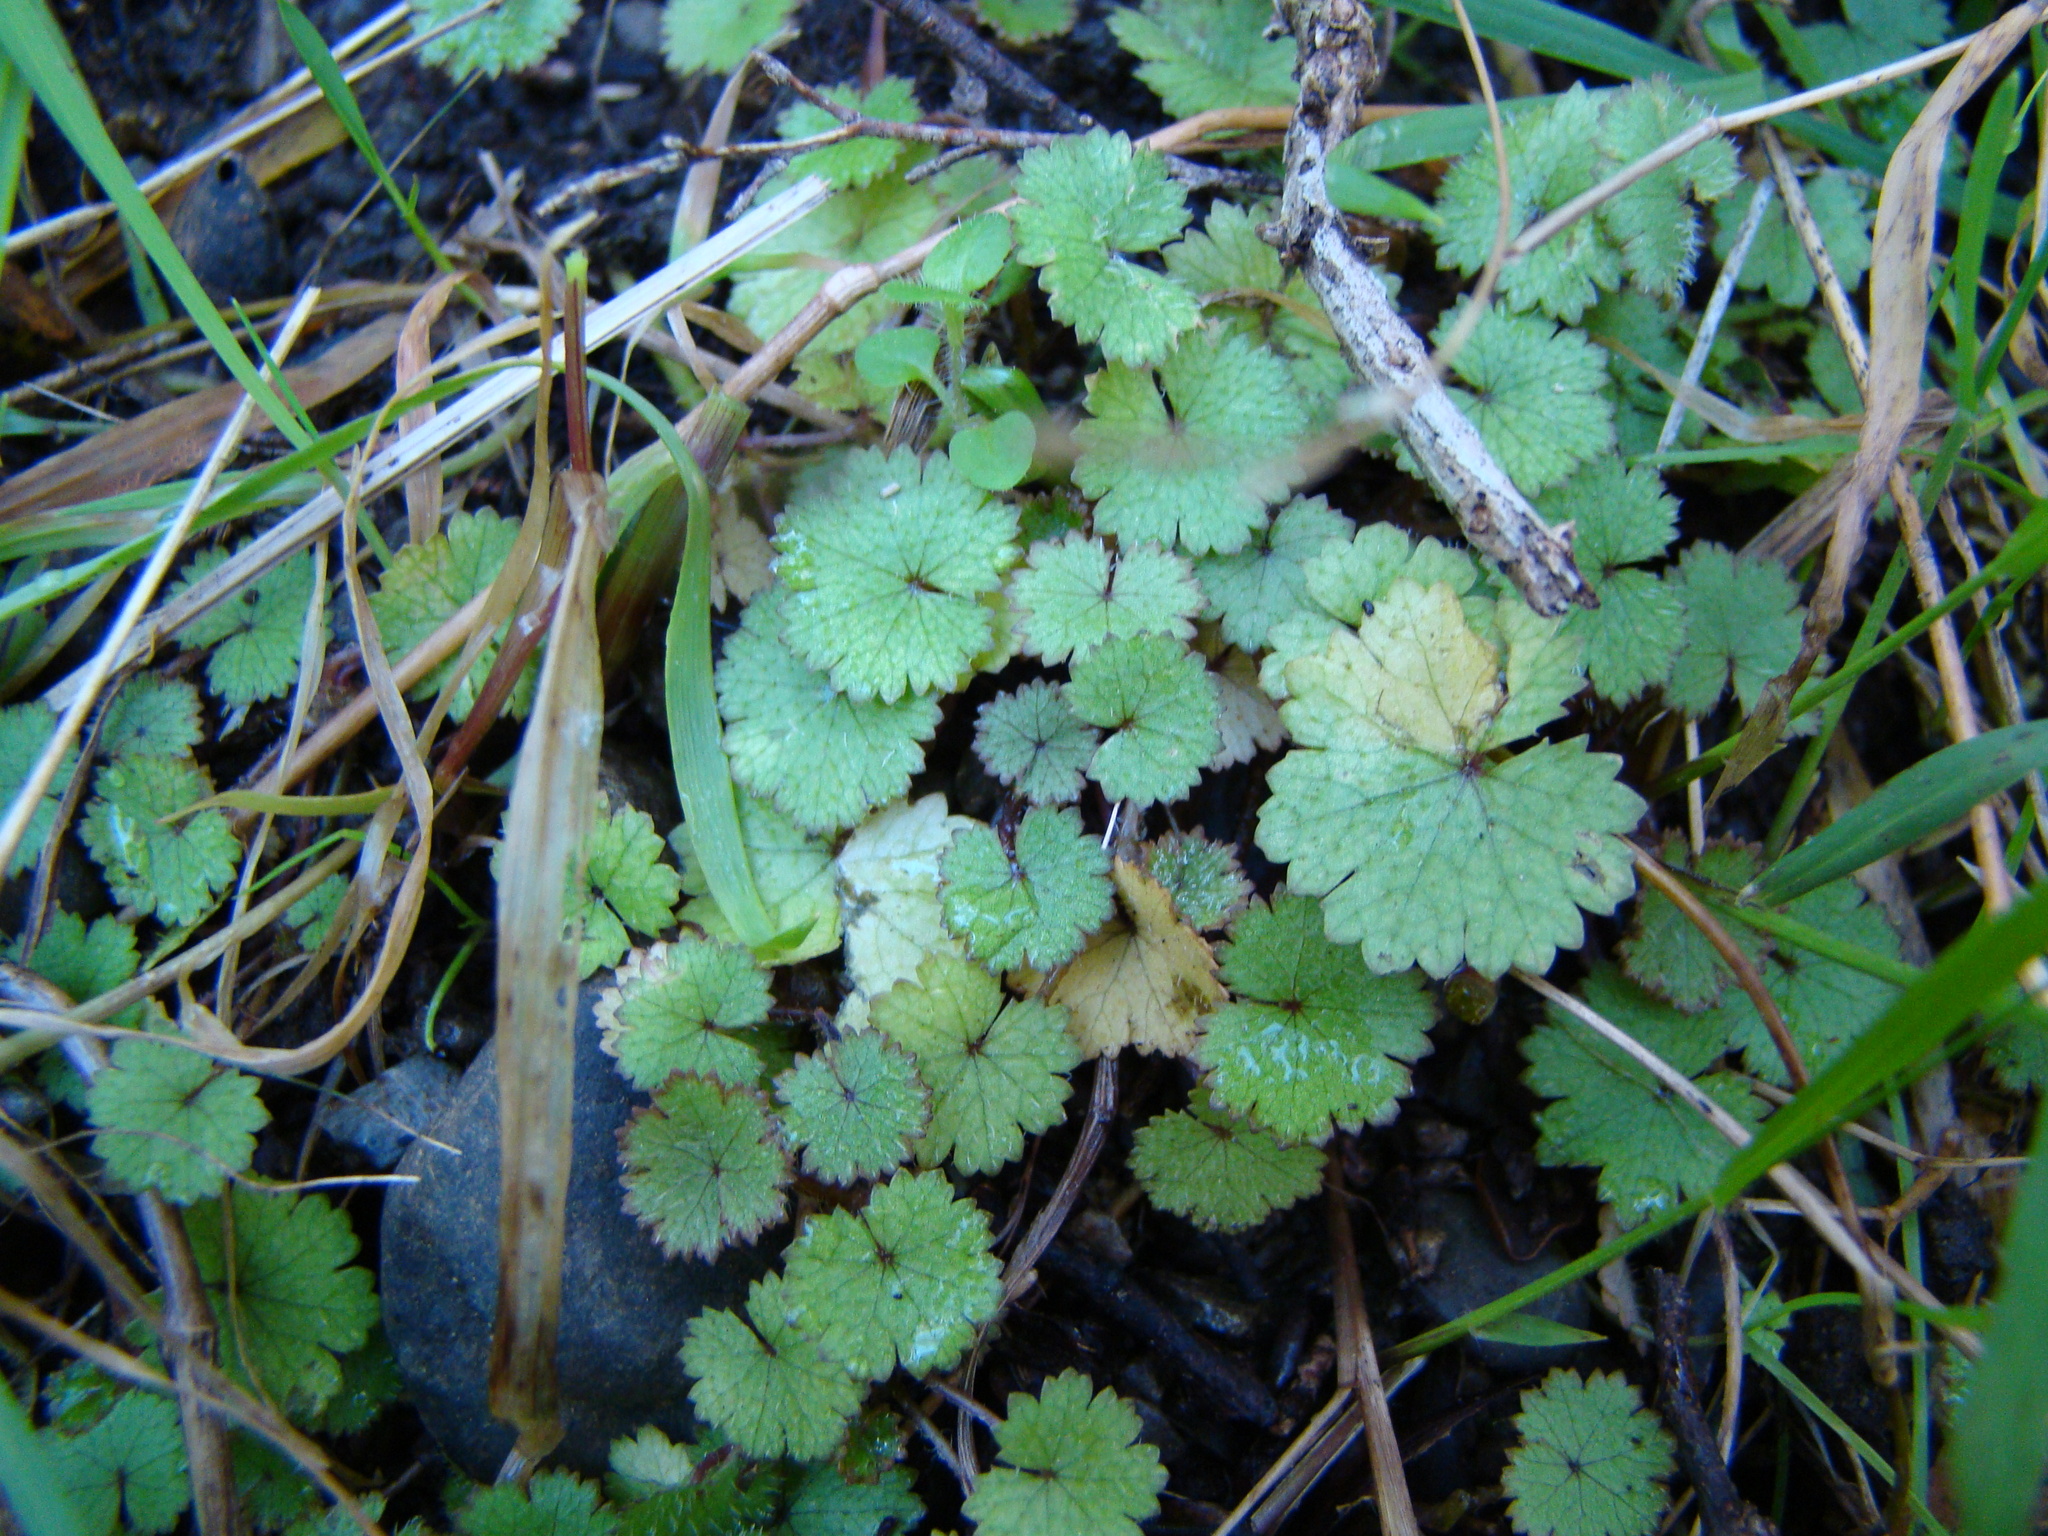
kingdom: Plantae
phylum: Tracheophyta
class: Magnoliopsida
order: Apiales
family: Araliaceae
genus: Hydrocotyle
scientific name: Hydrocotyle moschata
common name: Hairy pennywort
